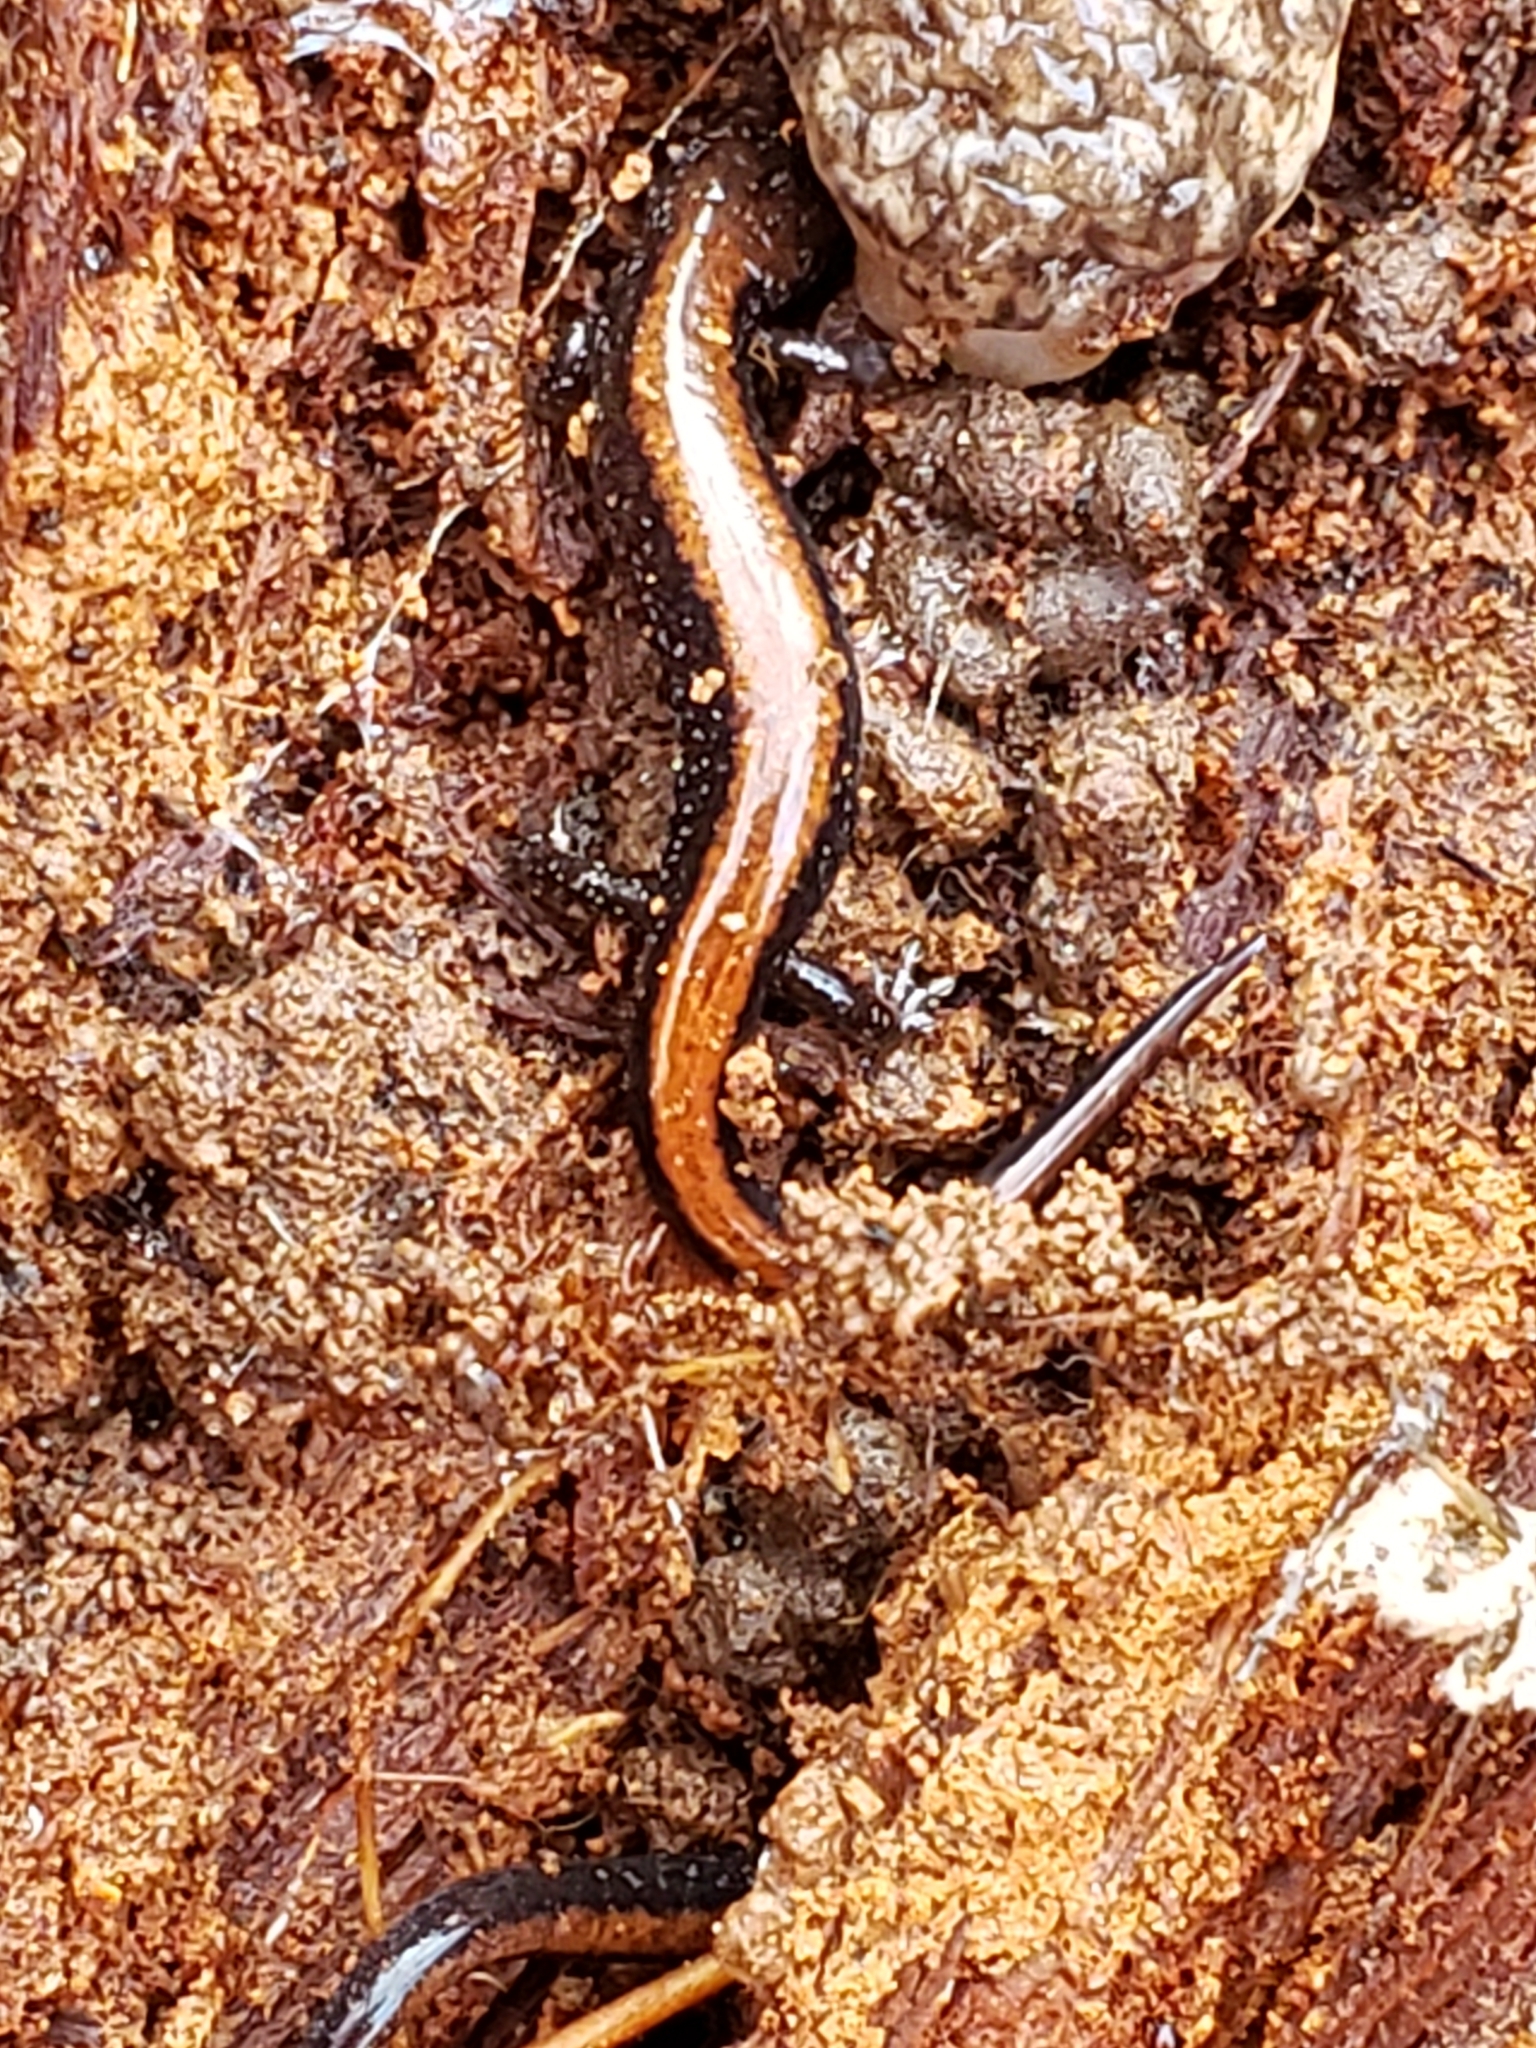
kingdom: Animalia
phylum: Chordata
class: Amphibia
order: Caudata
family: Plethodontidae
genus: Plethodon
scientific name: Plethodon cinereus
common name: Redback salamander
